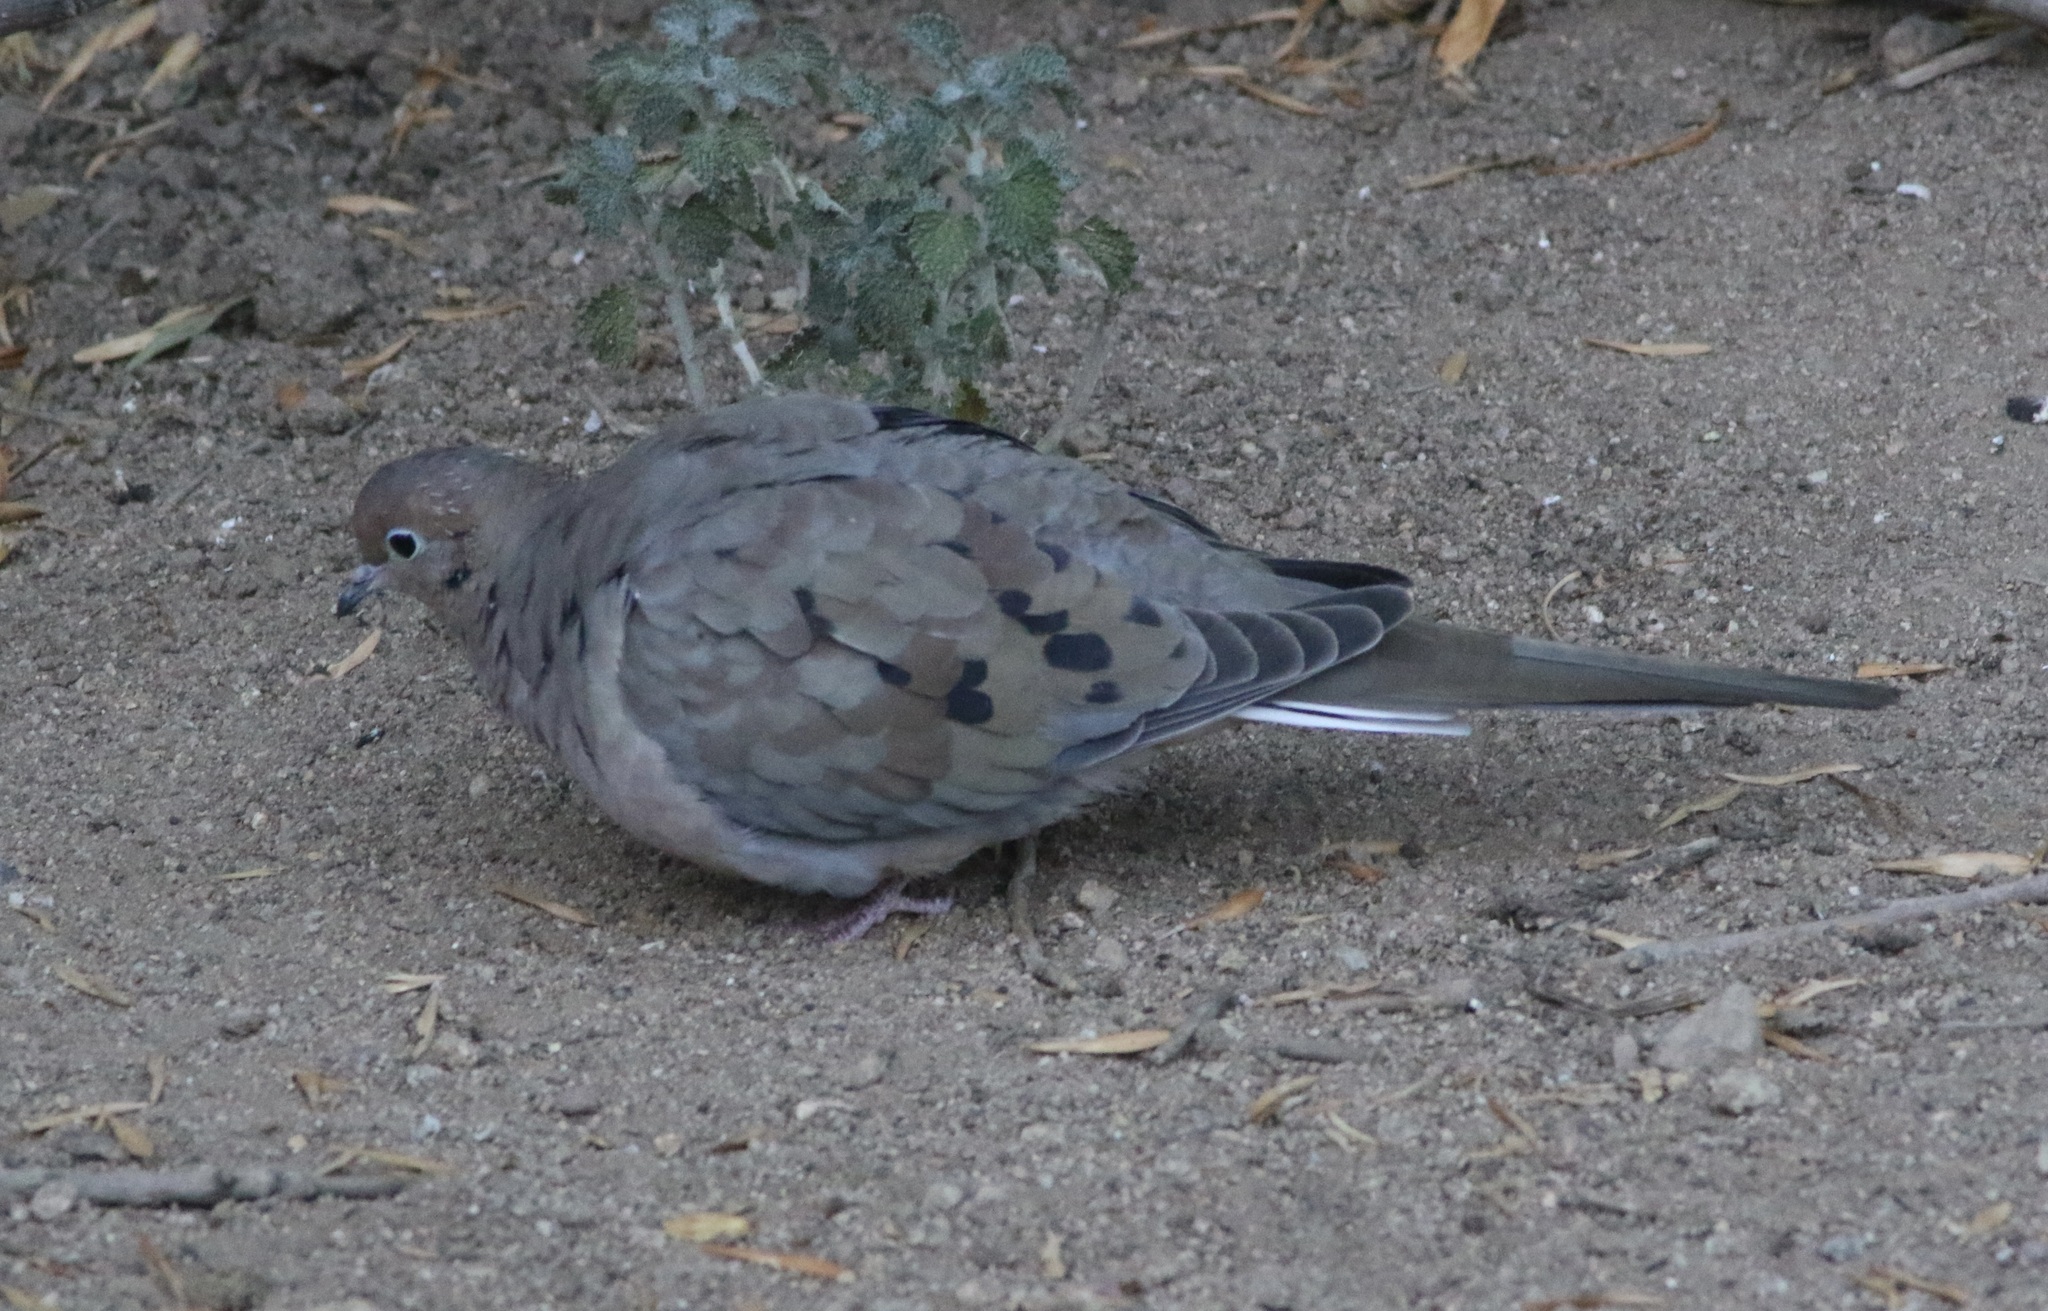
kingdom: Animalia
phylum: Chordata
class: Aves
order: Columbiformes
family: Columbidae
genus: Zenaida
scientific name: Zenaida macroura
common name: Mourning dove
